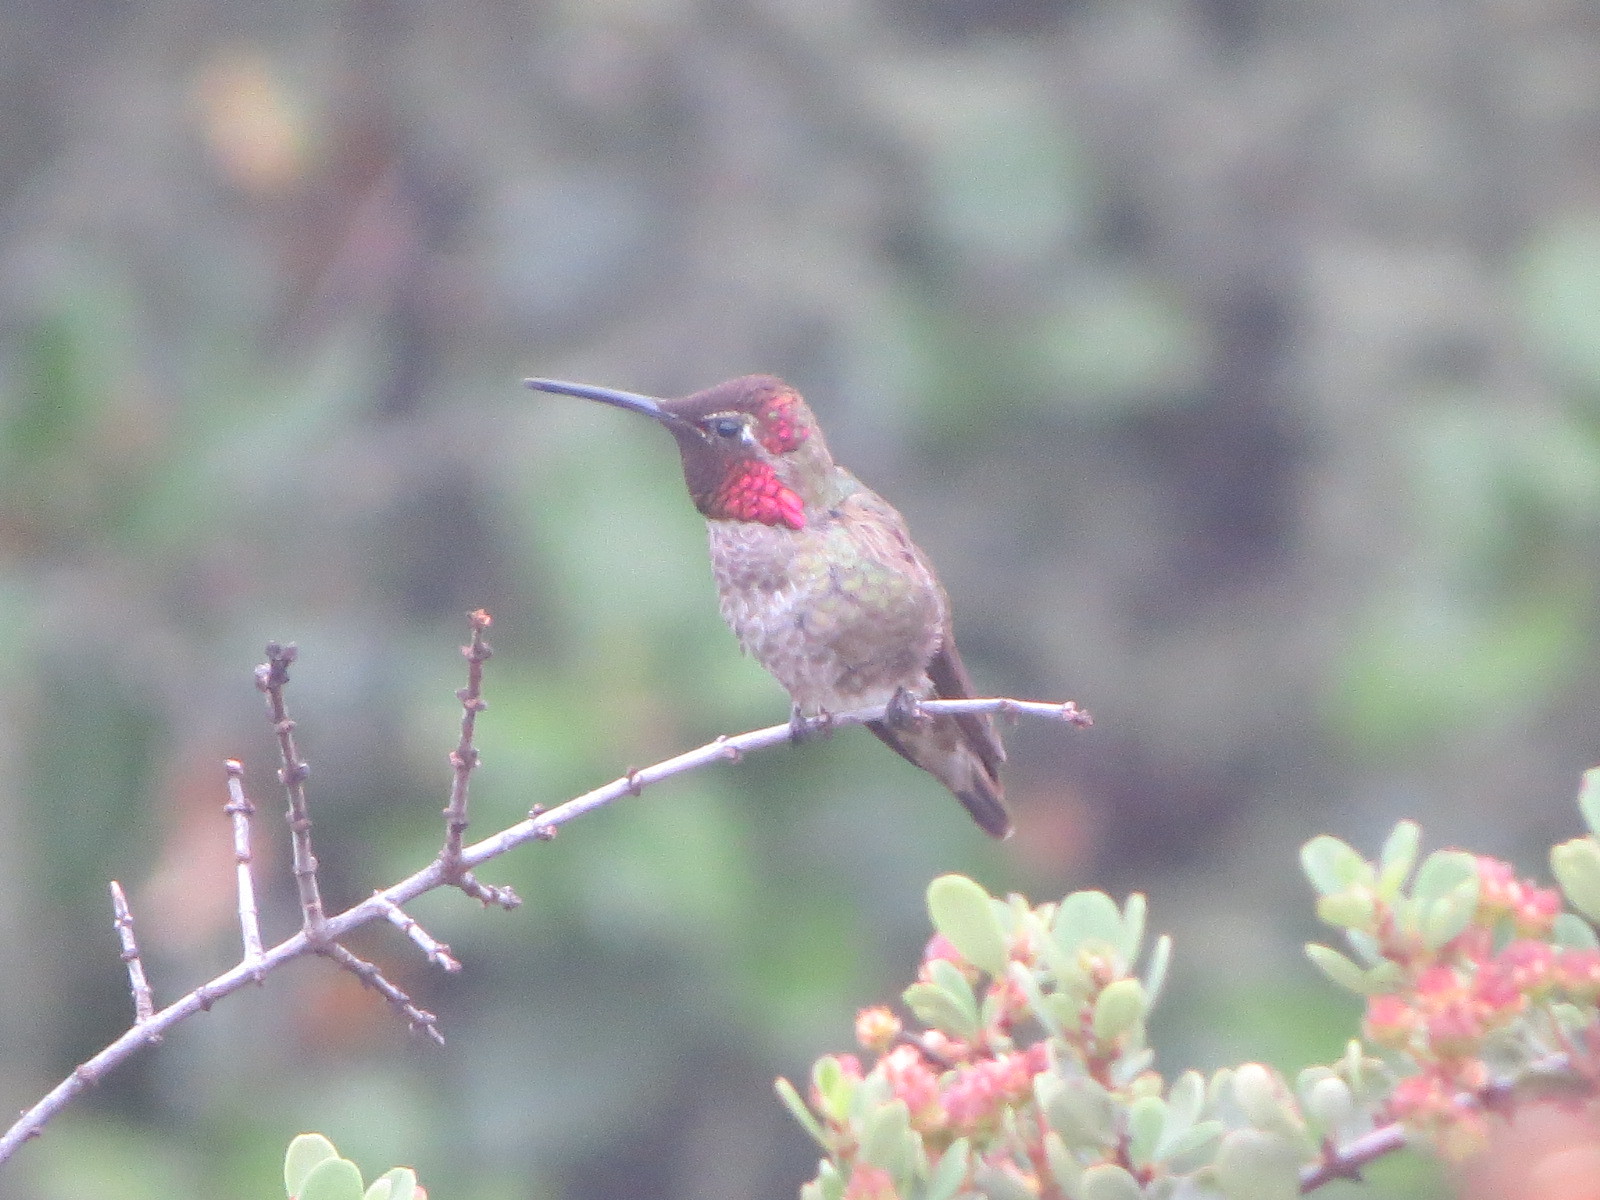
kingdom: Animalia
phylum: Chordata
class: Aves
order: Apodiformes
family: Trochilidae
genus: Calypte
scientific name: Calypte anna
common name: Anna's hummingbird
